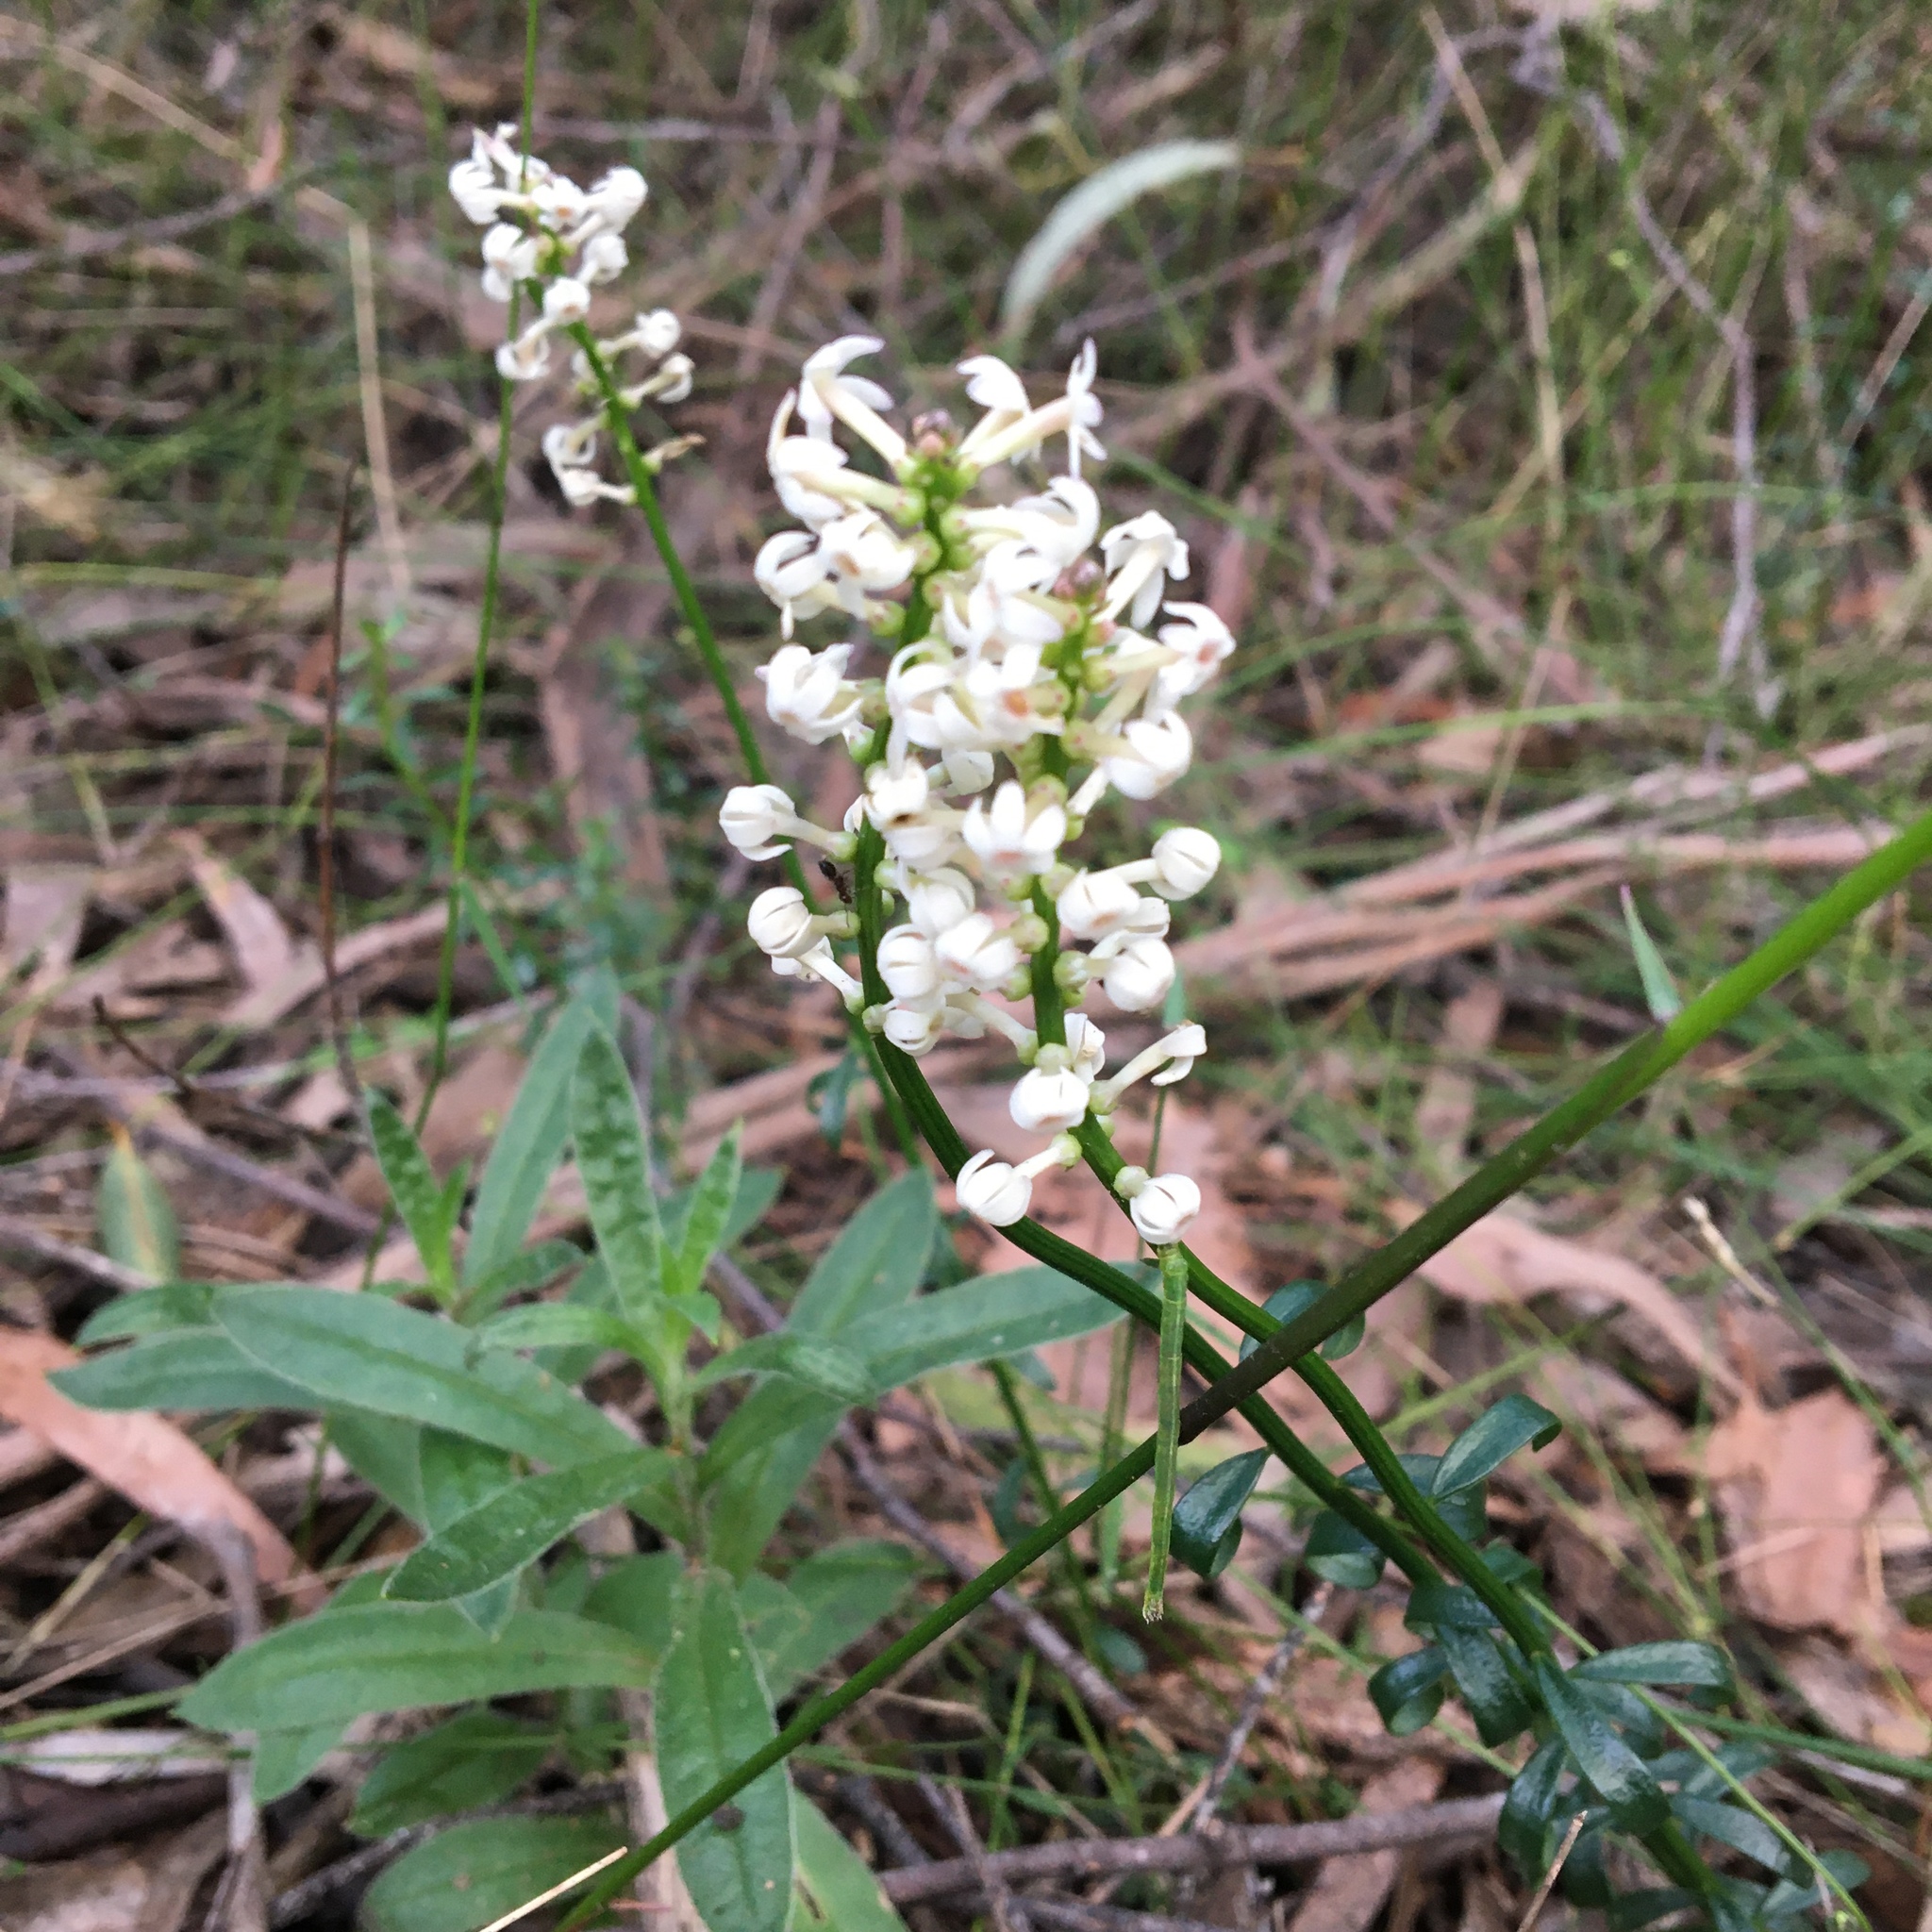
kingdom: Plantae
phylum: Tracheophyta
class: Magnoliopsida
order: Celastrales
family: Celastraceae
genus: Stackhousia
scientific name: Stackhousia monogyna
